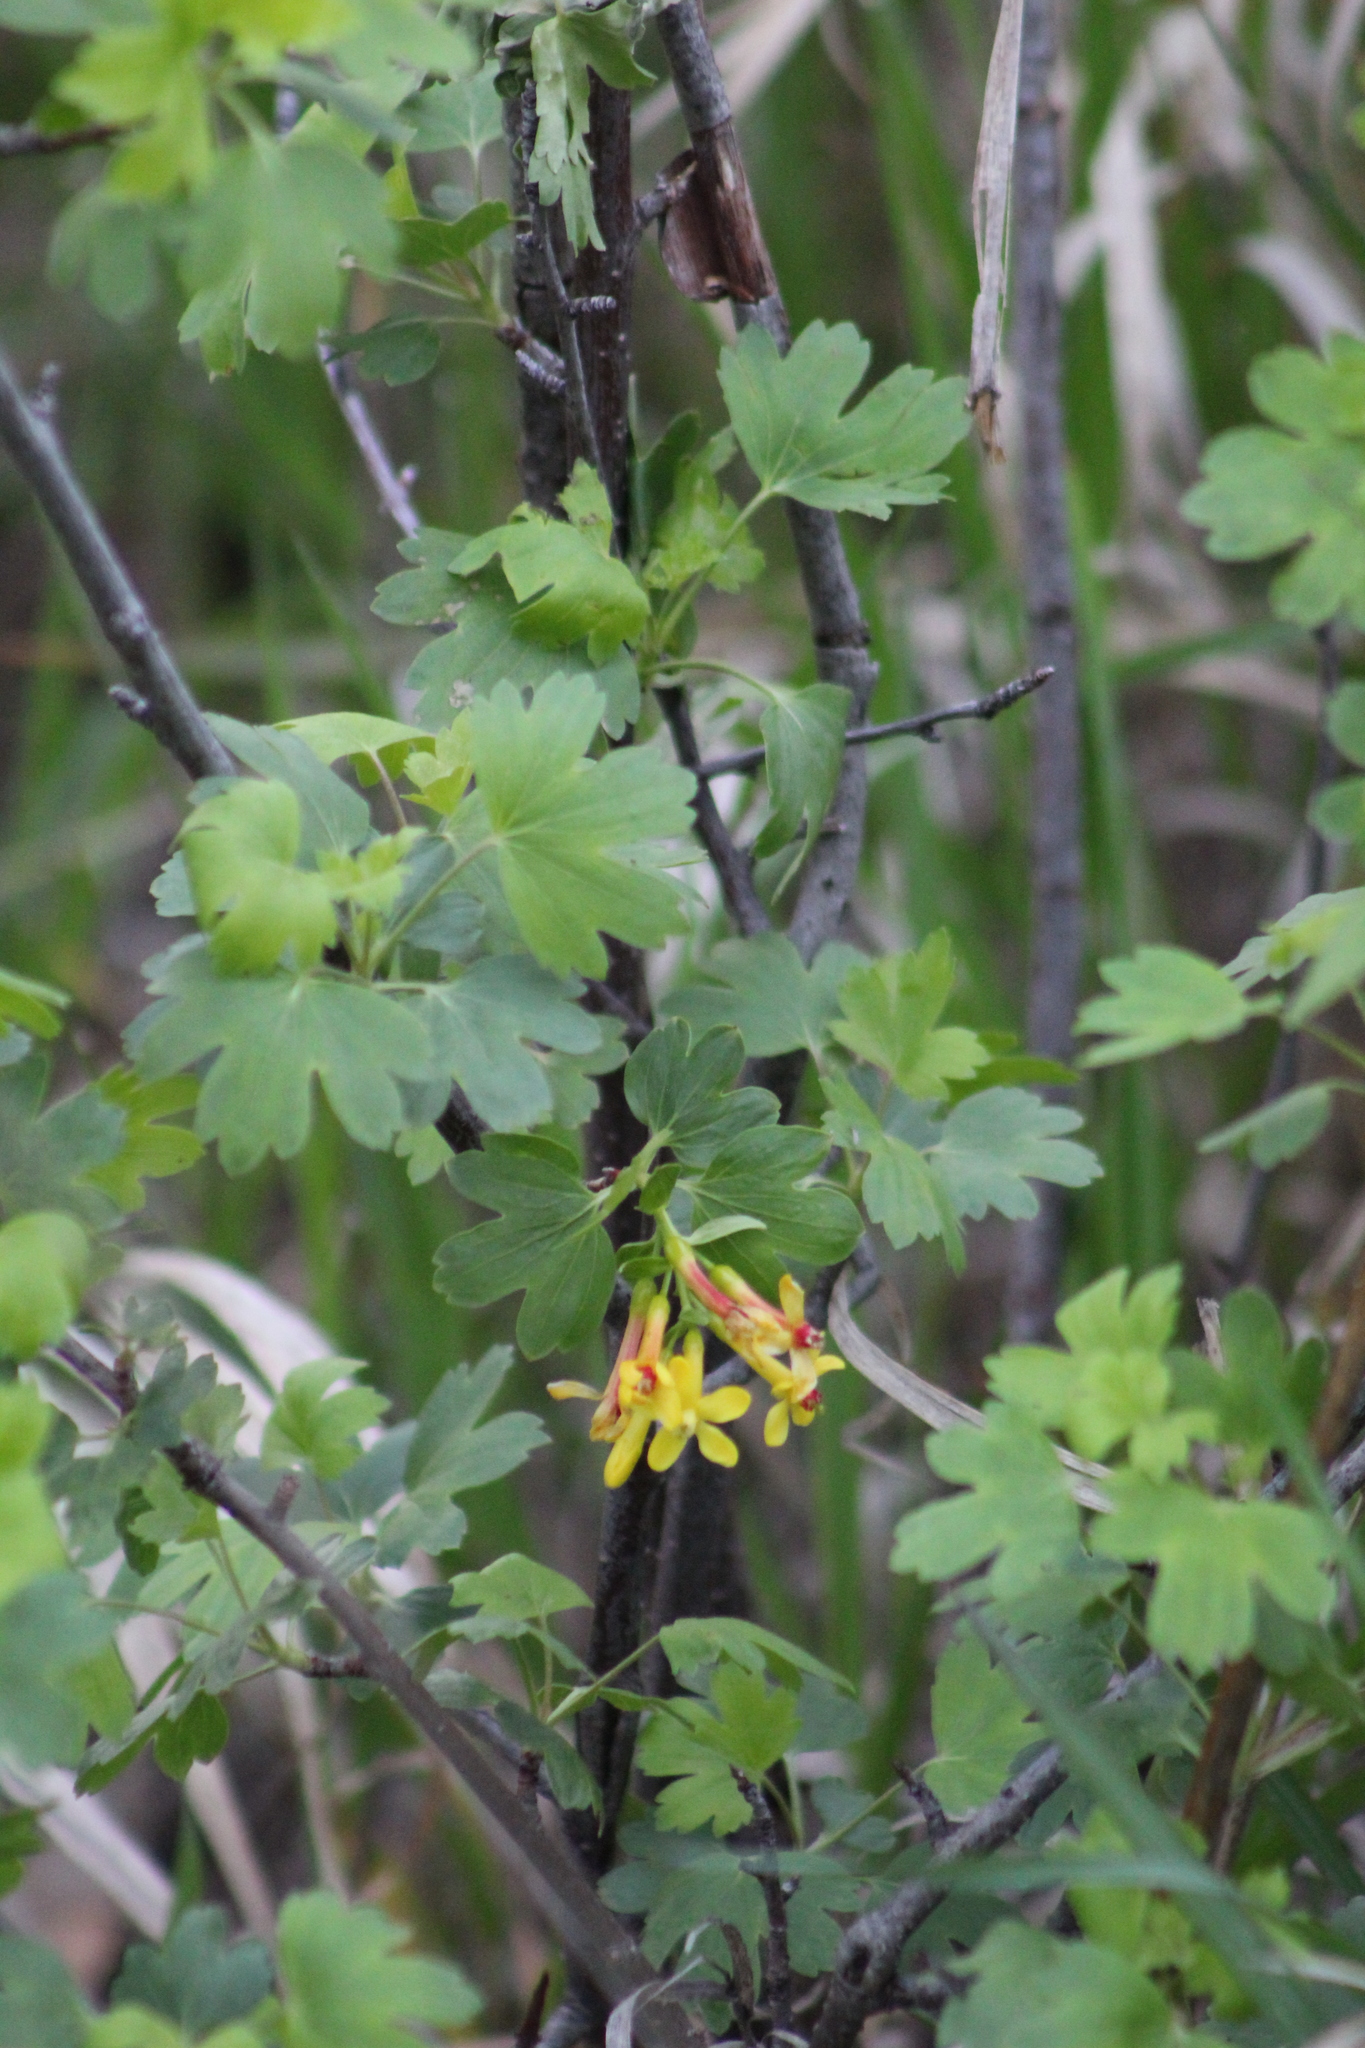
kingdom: Plantae
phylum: Tracheophyta
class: Magnoliopsida
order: Saxifragales
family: Grossulariaceae
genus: Ribes
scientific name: Ribes aureum
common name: Golden currant
